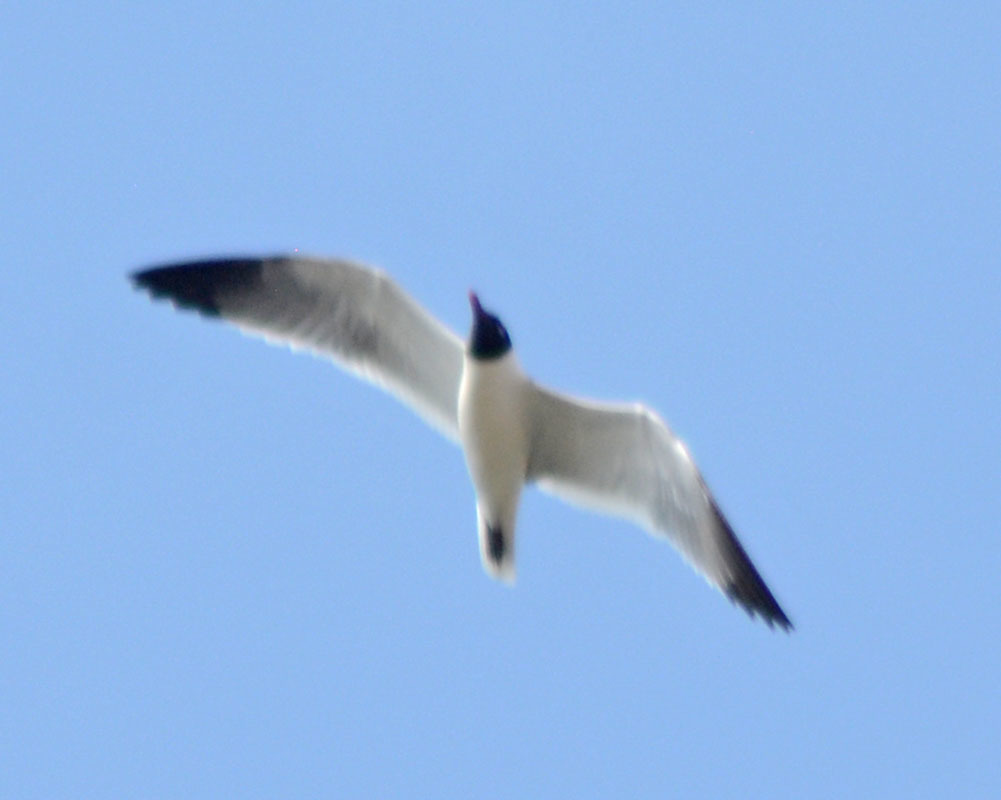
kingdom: Animalia
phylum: Chordata
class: Aves
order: Charadriiformes
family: Laridae
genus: Leucophaeus
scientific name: Leucophaeus atricilla
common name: Laughing gull
